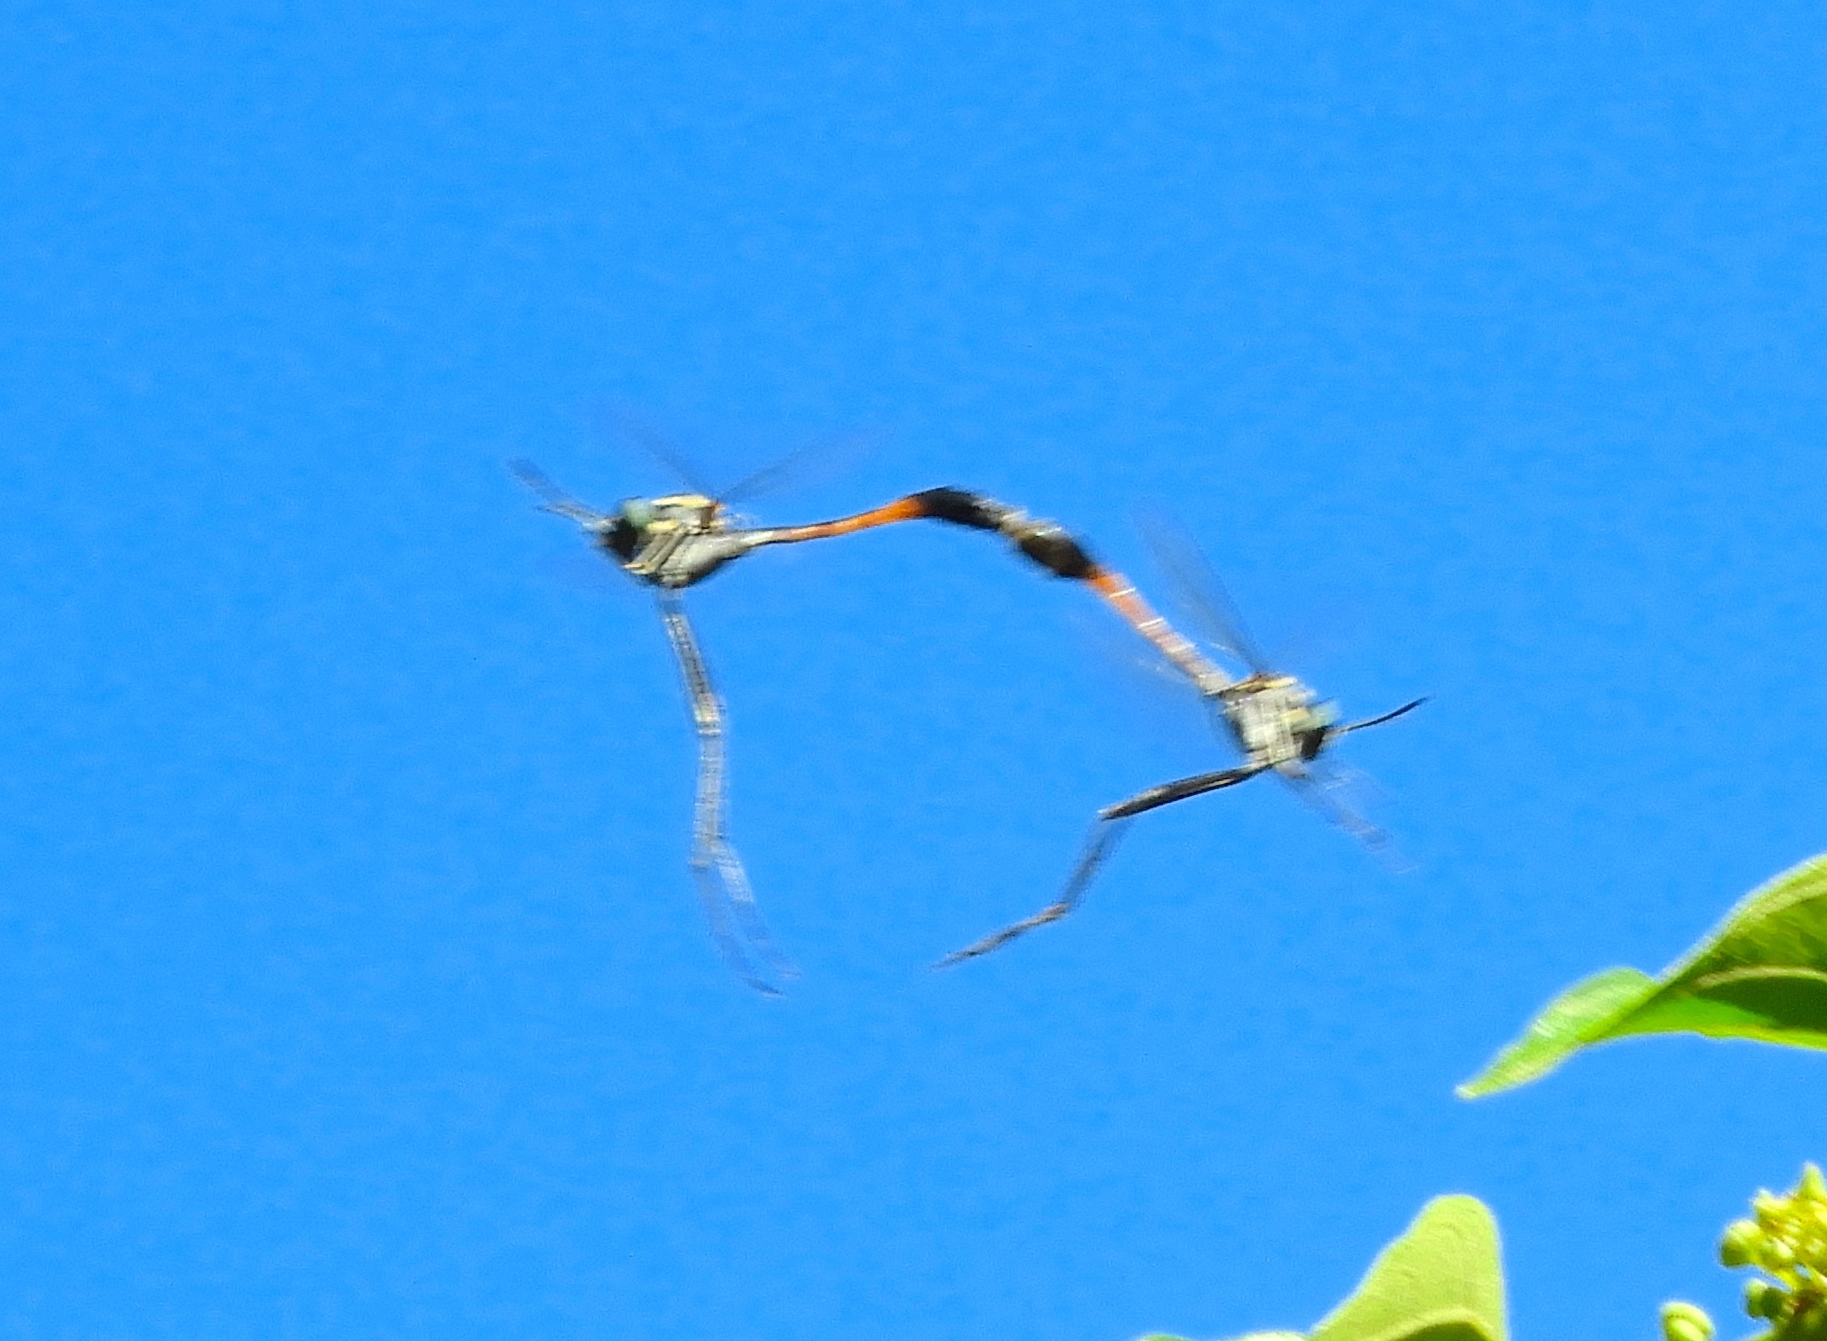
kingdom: Animalia
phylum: Arthropoda
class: Insecta
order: Diptera
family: Bombyliidae
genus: Systropus
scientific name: Systropus
